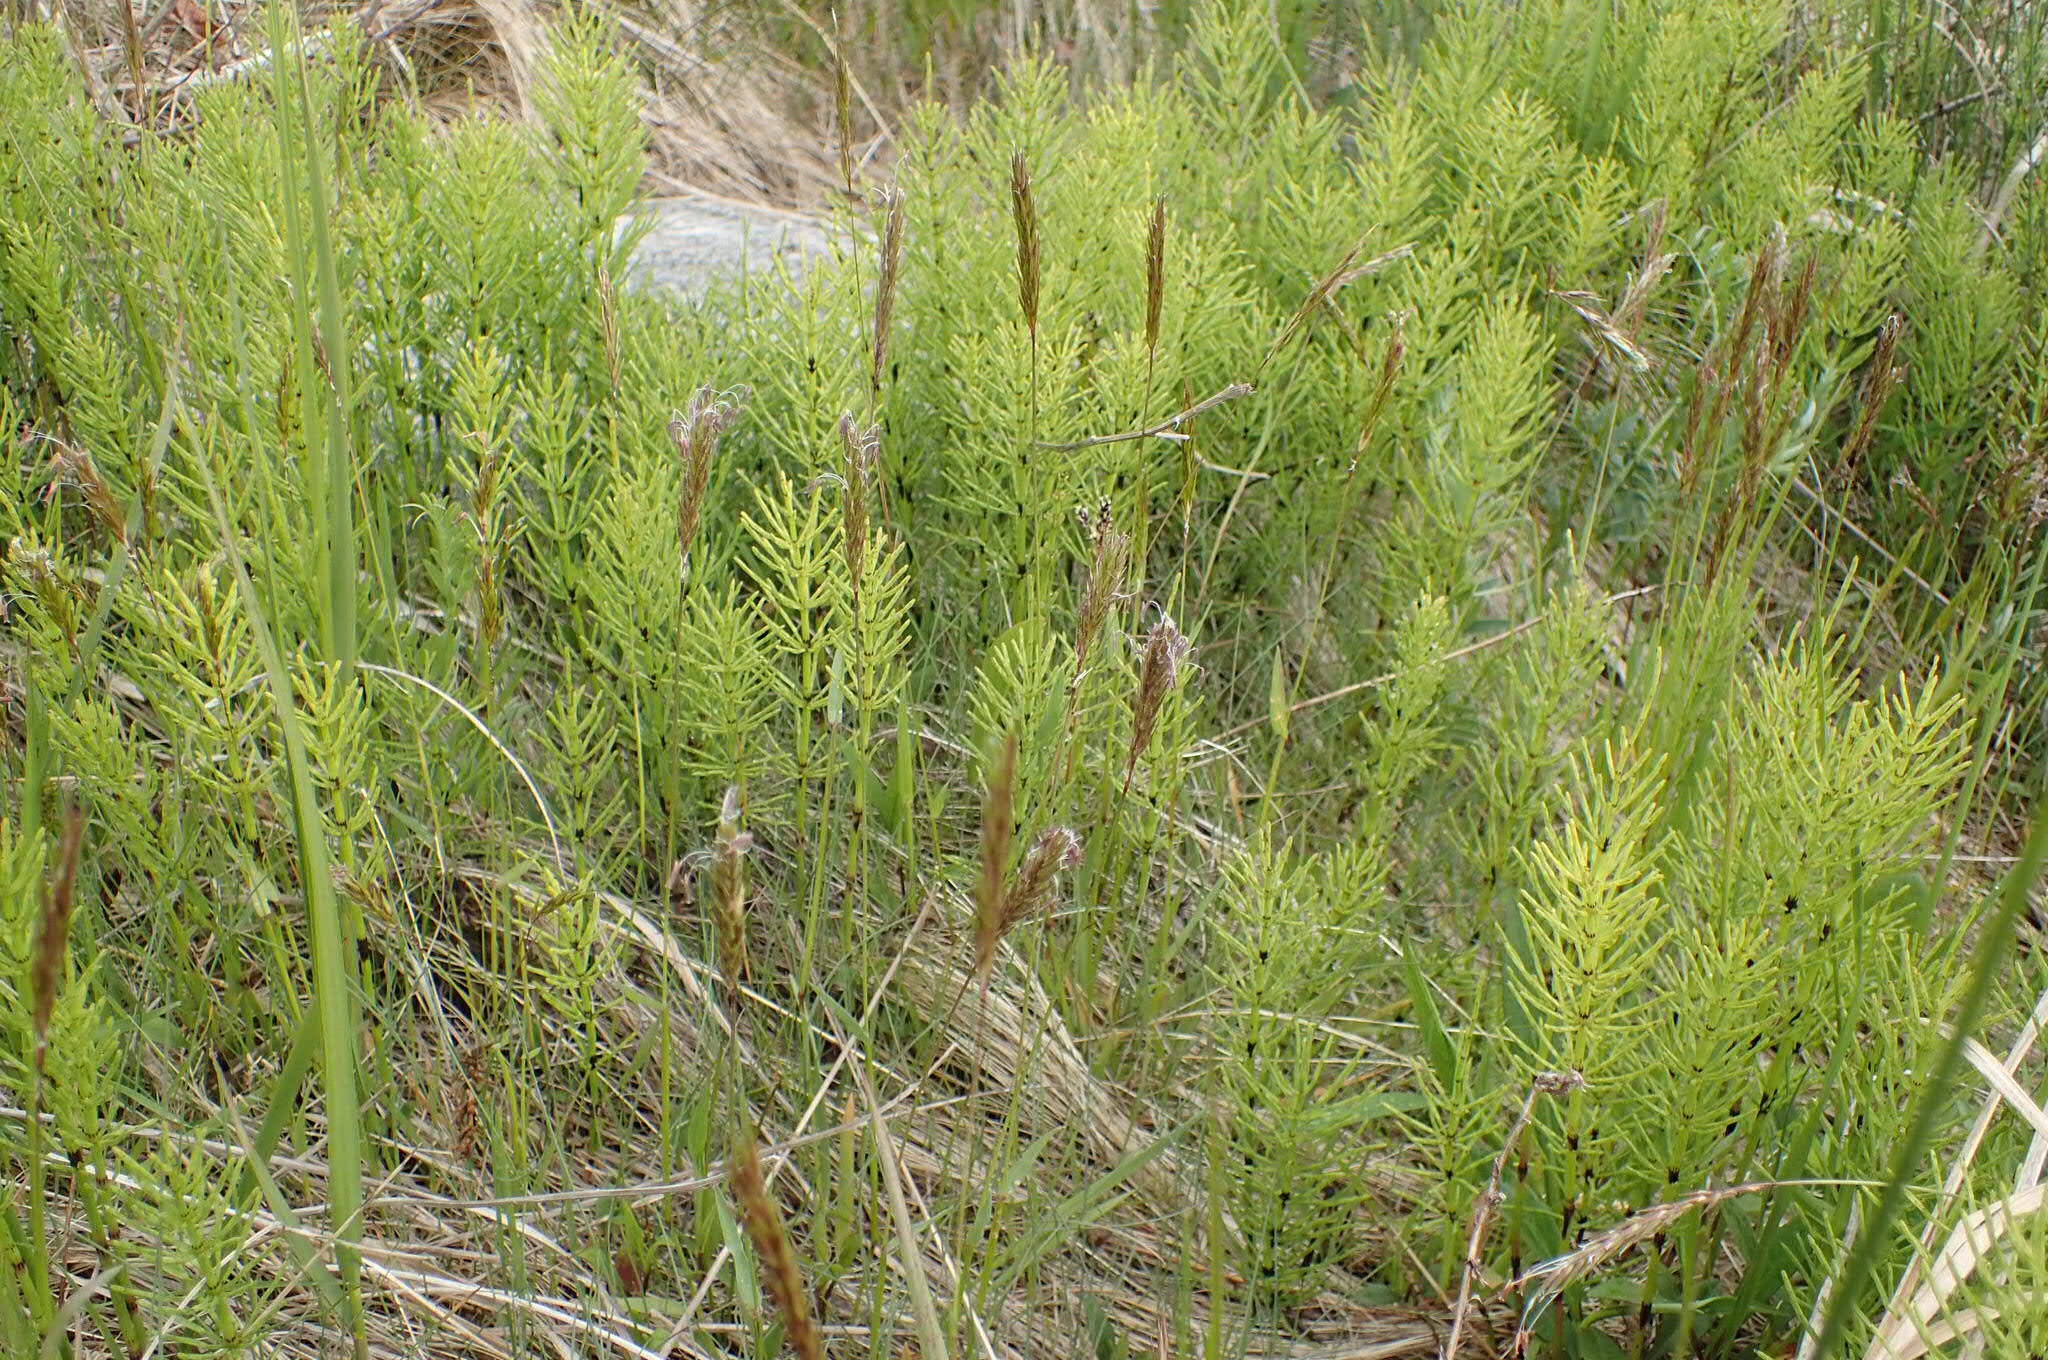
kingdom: Plantae
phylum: Tracheophyta
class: Polypodiopsida
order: Equisetales
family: Equisetaceae
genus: Equisetum
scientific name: Equisetum arvense
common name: Field horsetail
